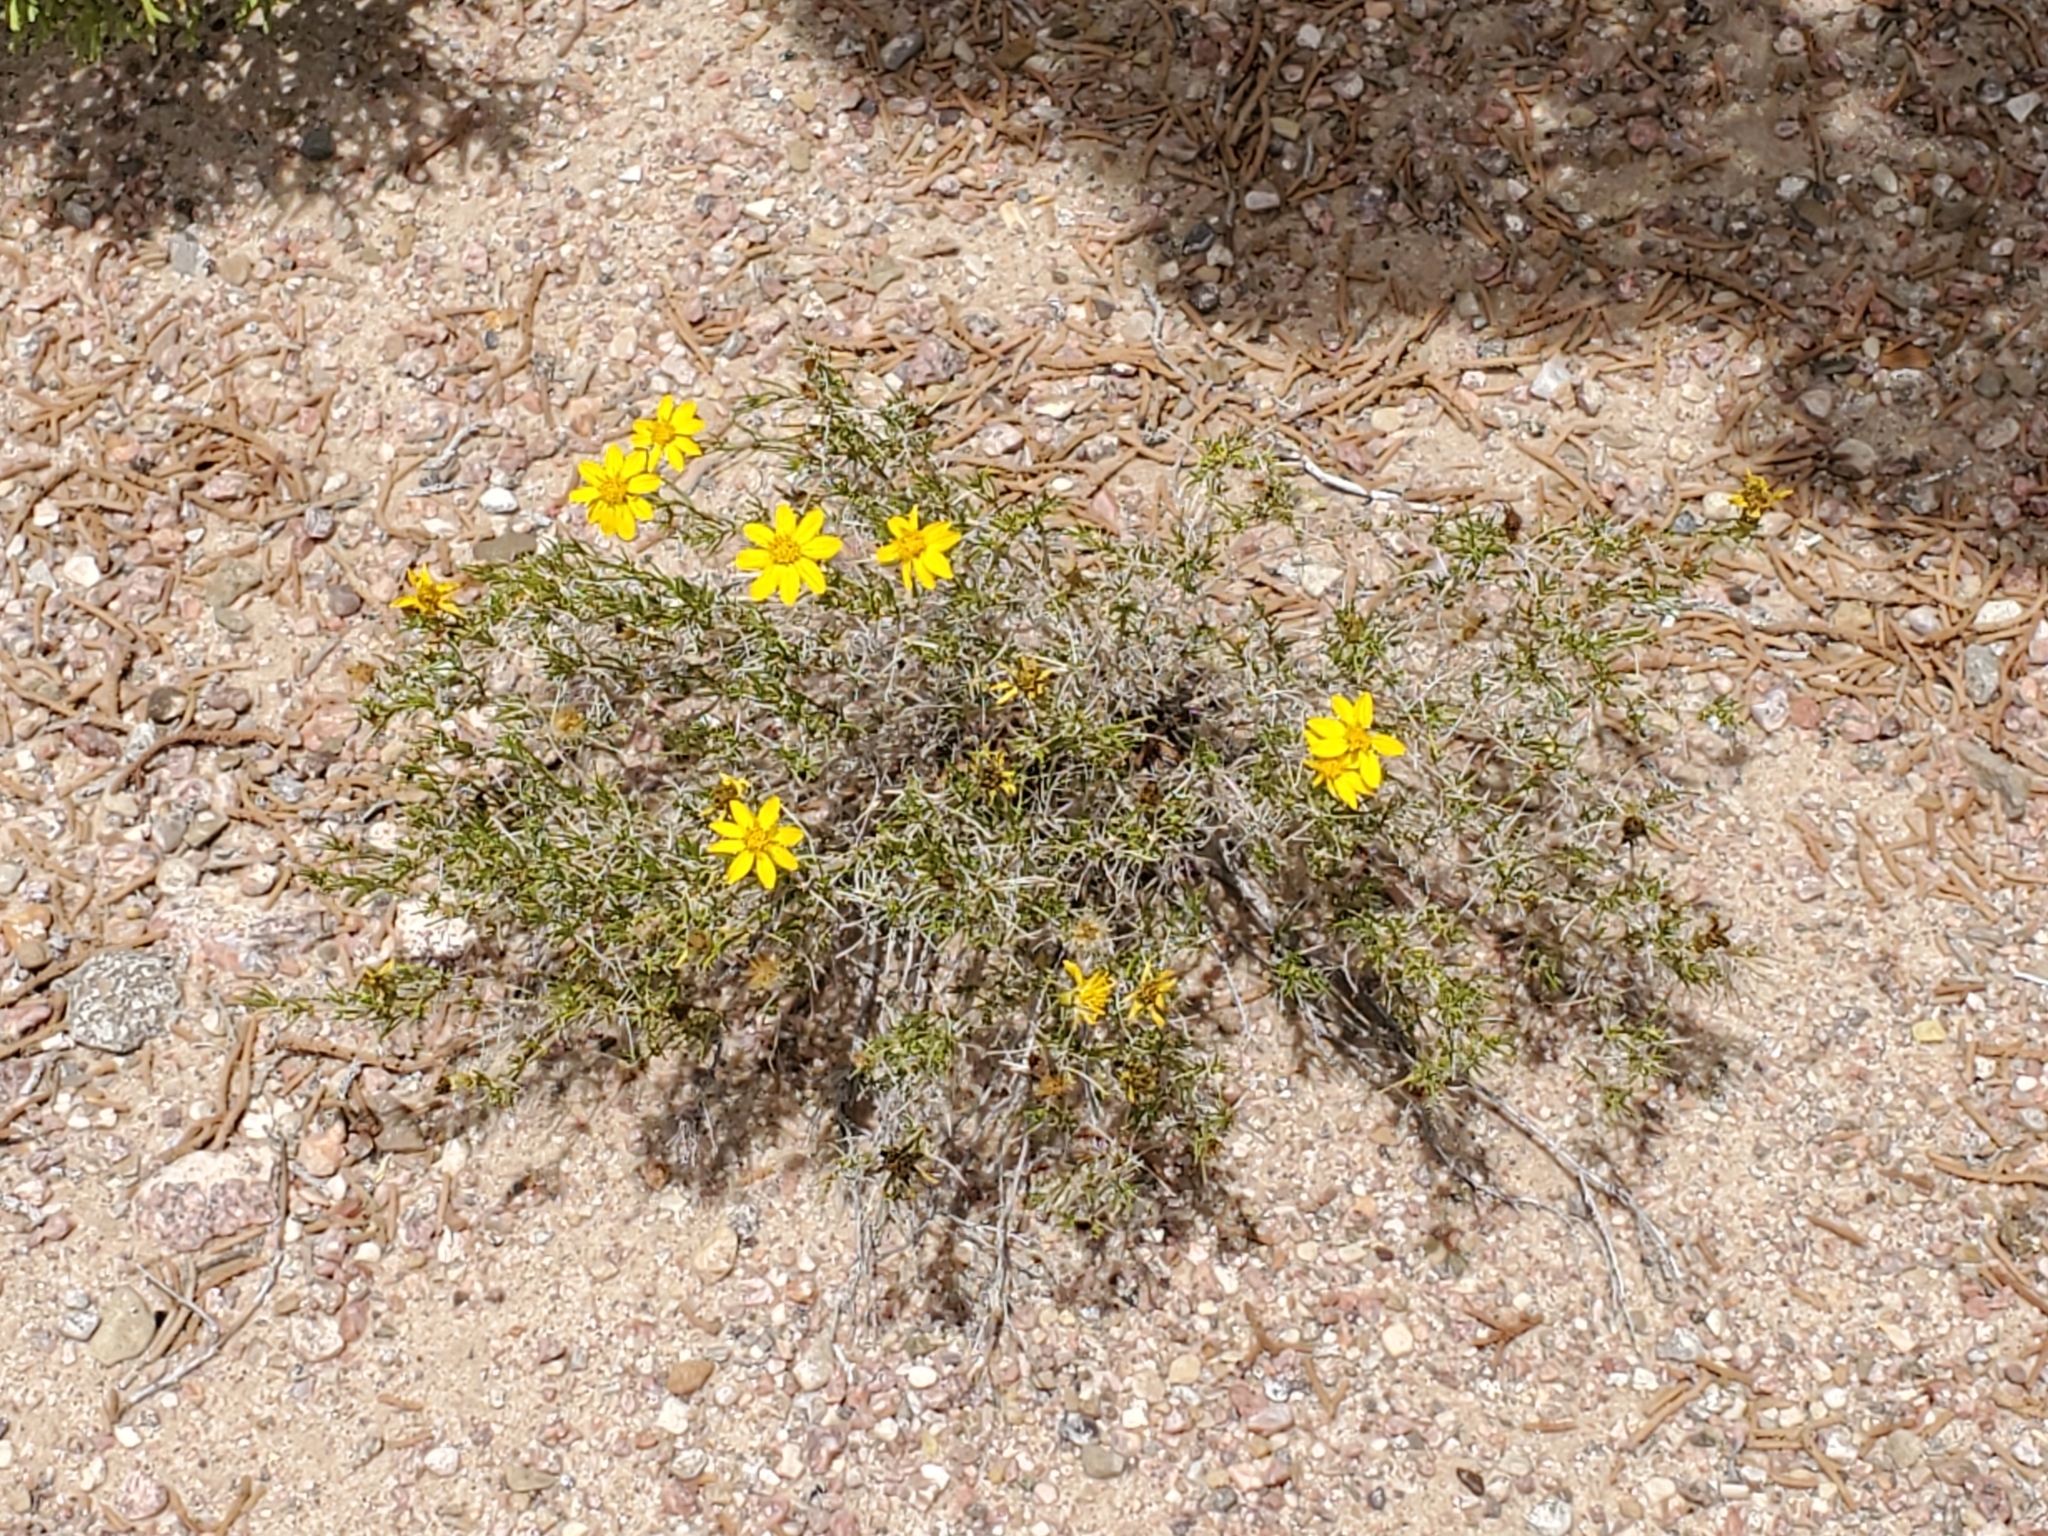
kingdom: Plantae
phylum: Tracheophyta
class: Magnoliopsida
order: Asterales
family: Asteraceae
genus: Thymophylla
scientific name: Thymophylla acerosa
